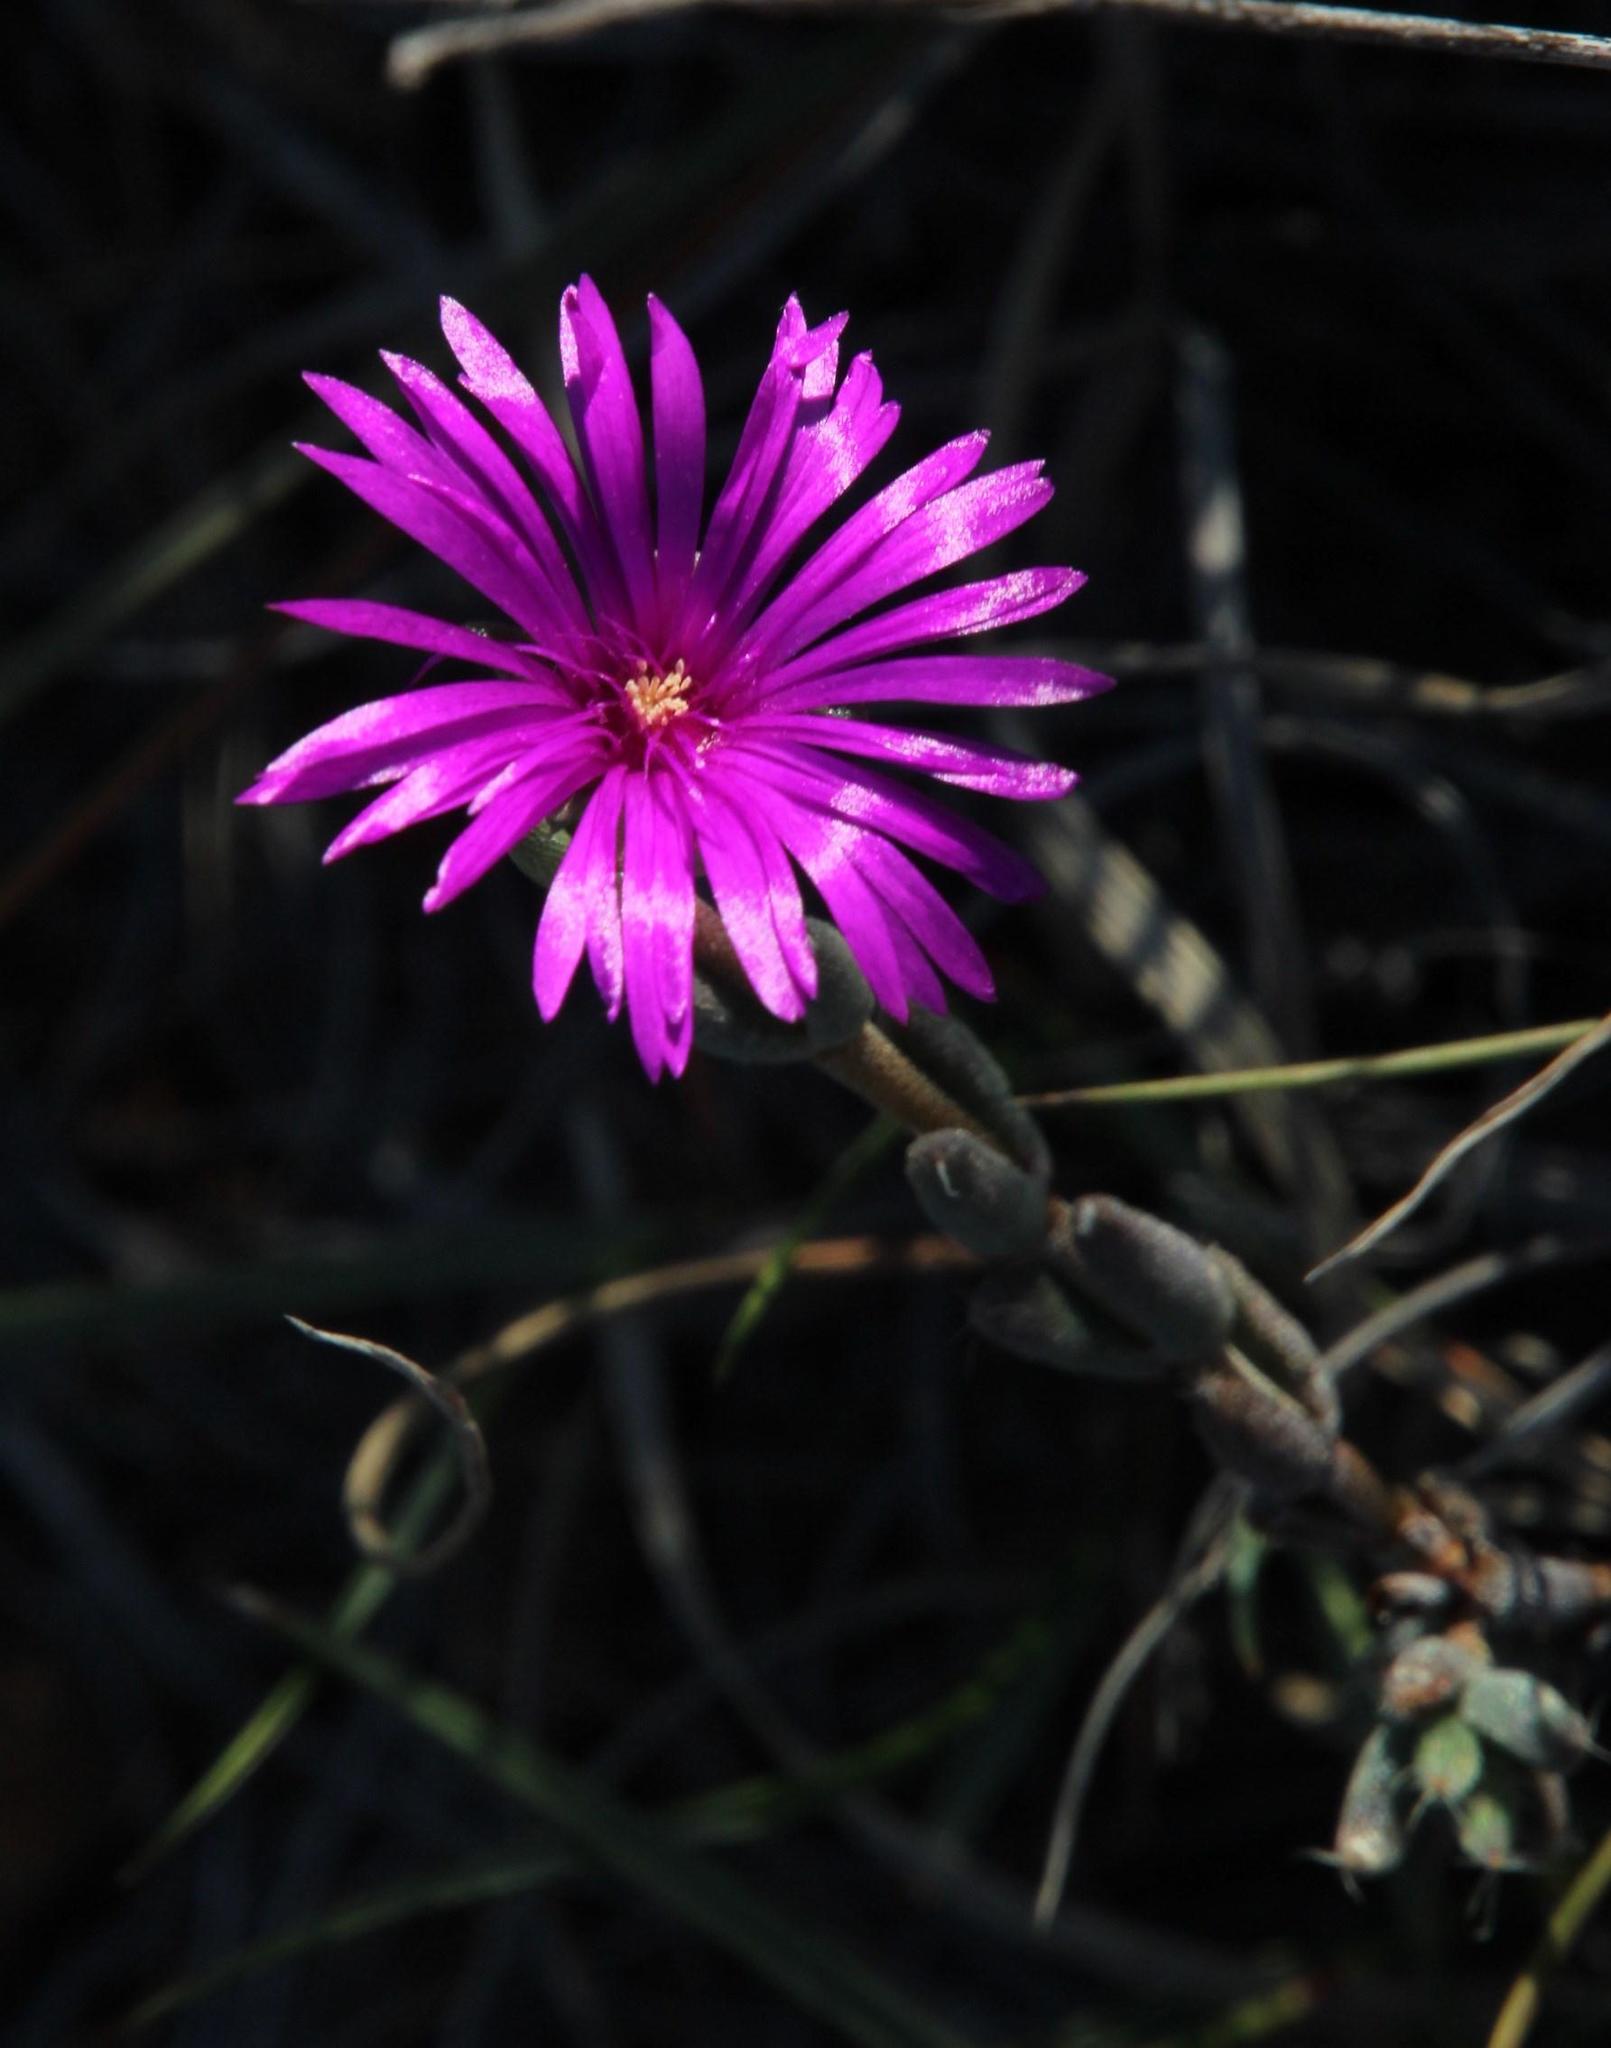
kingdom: Plantae
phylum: Tracheophyta
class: Magnoliopsida
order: Caryophyllales
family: Aizoaceae
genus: Trichodiadema
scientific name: Trichodiadema pomeridianum
